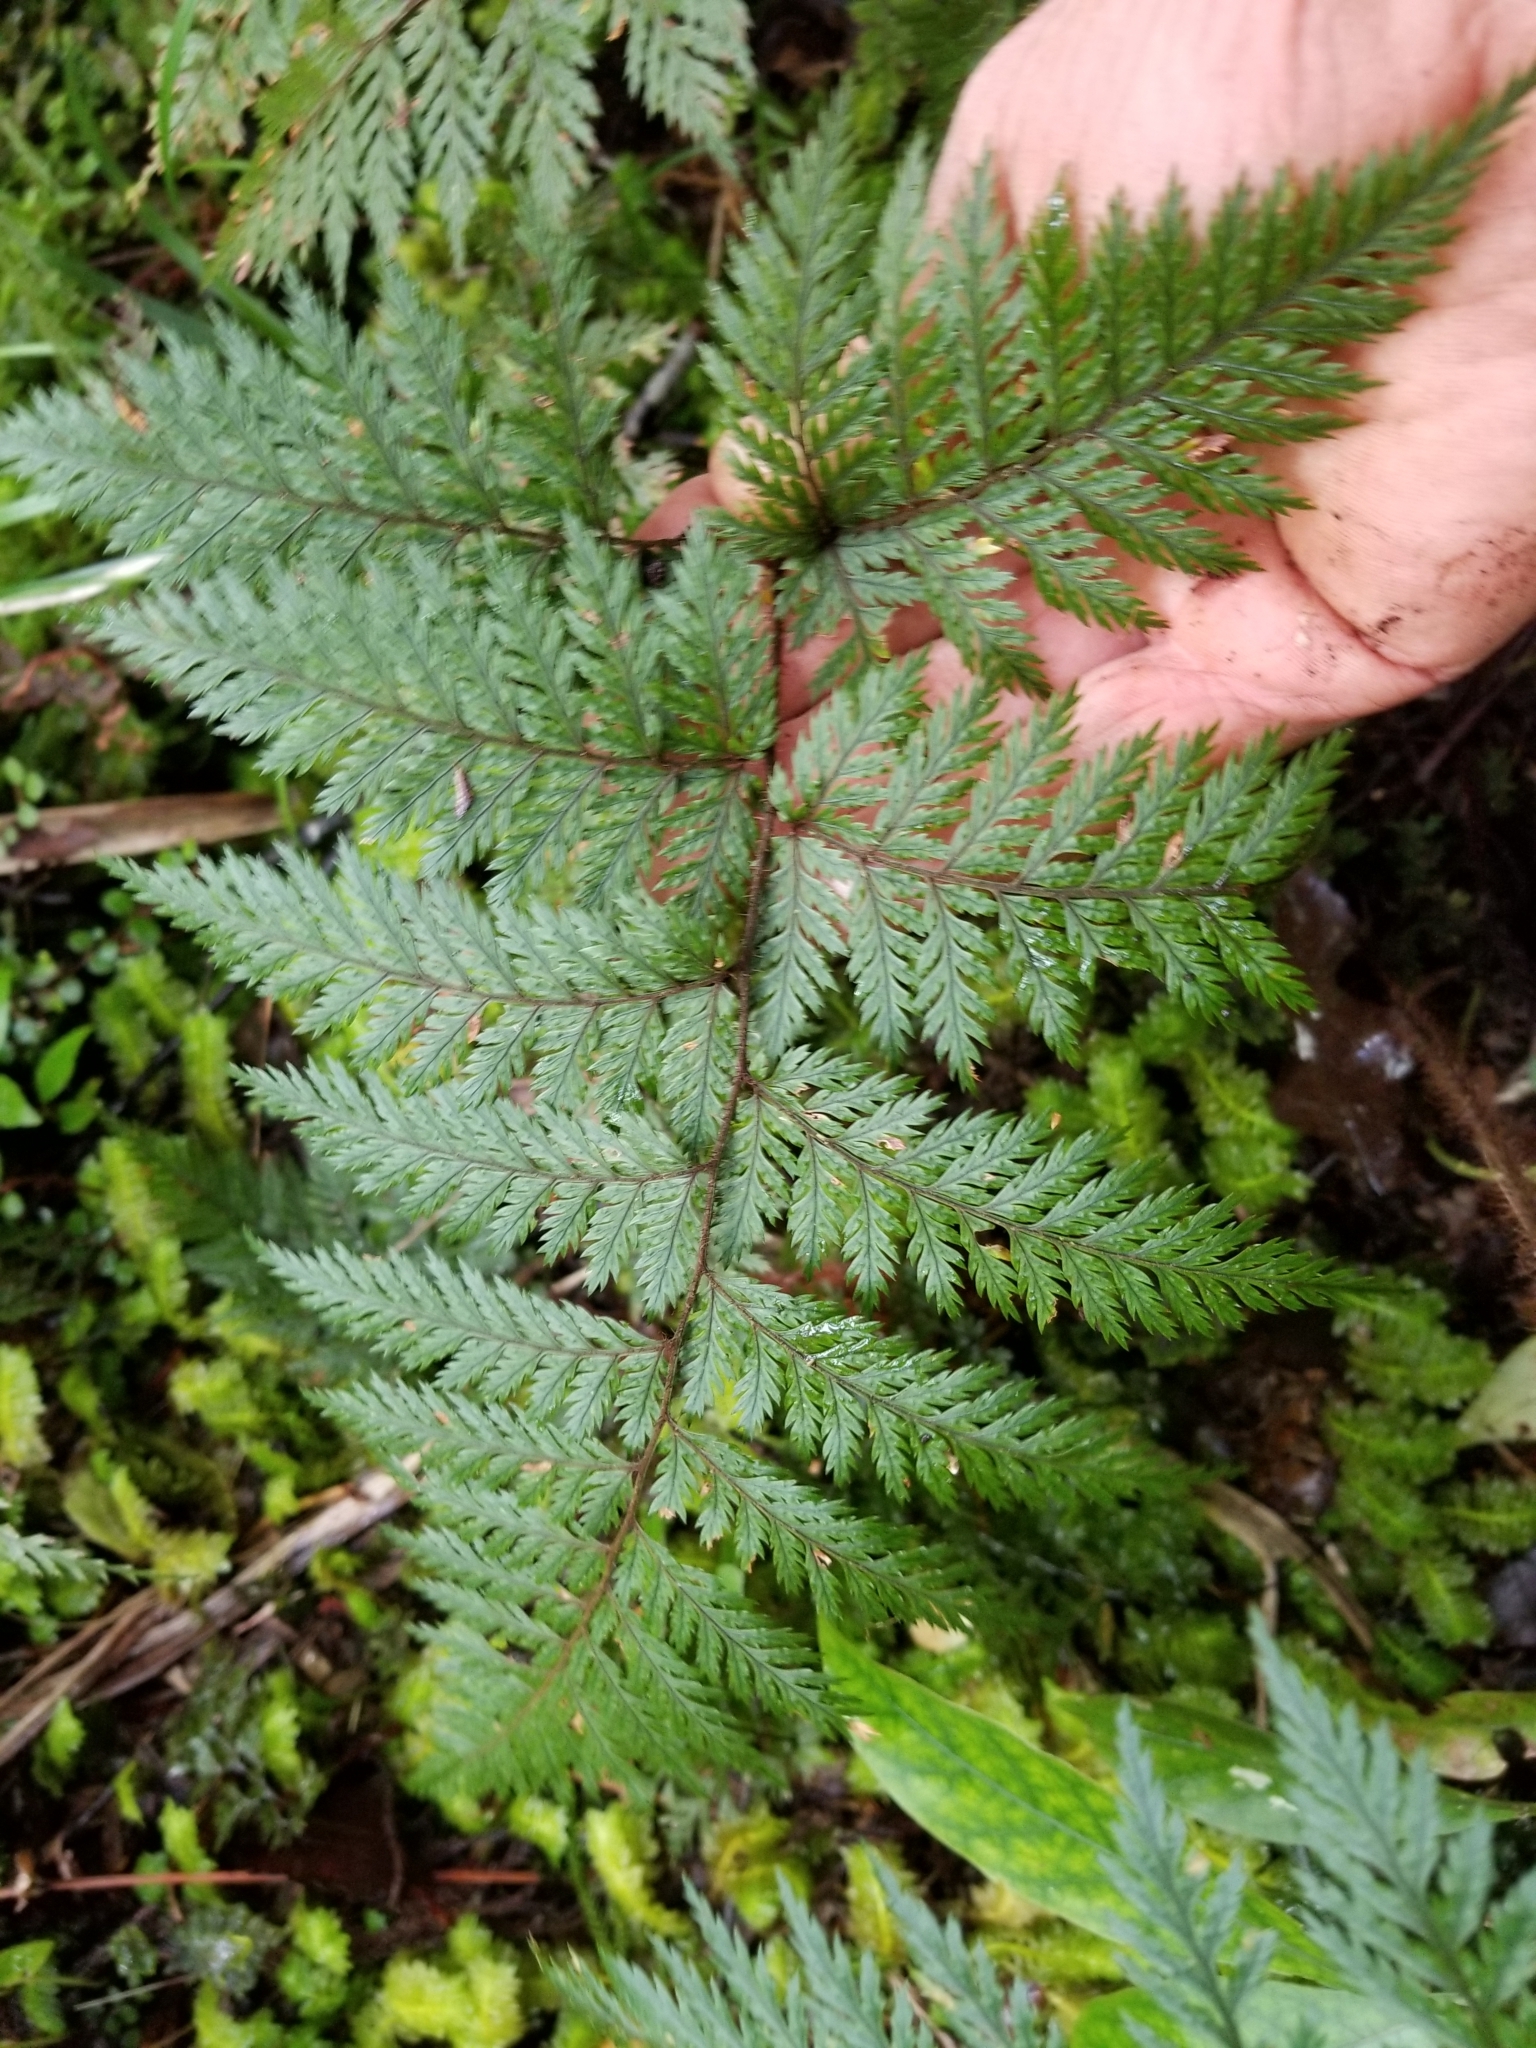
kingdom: Plantae
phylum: Tracheophyta
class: Polypodiopsida
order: Polypodiales
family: Dryopteridaceae
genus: Lastreopsis
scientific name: Lastreopsis hispida
